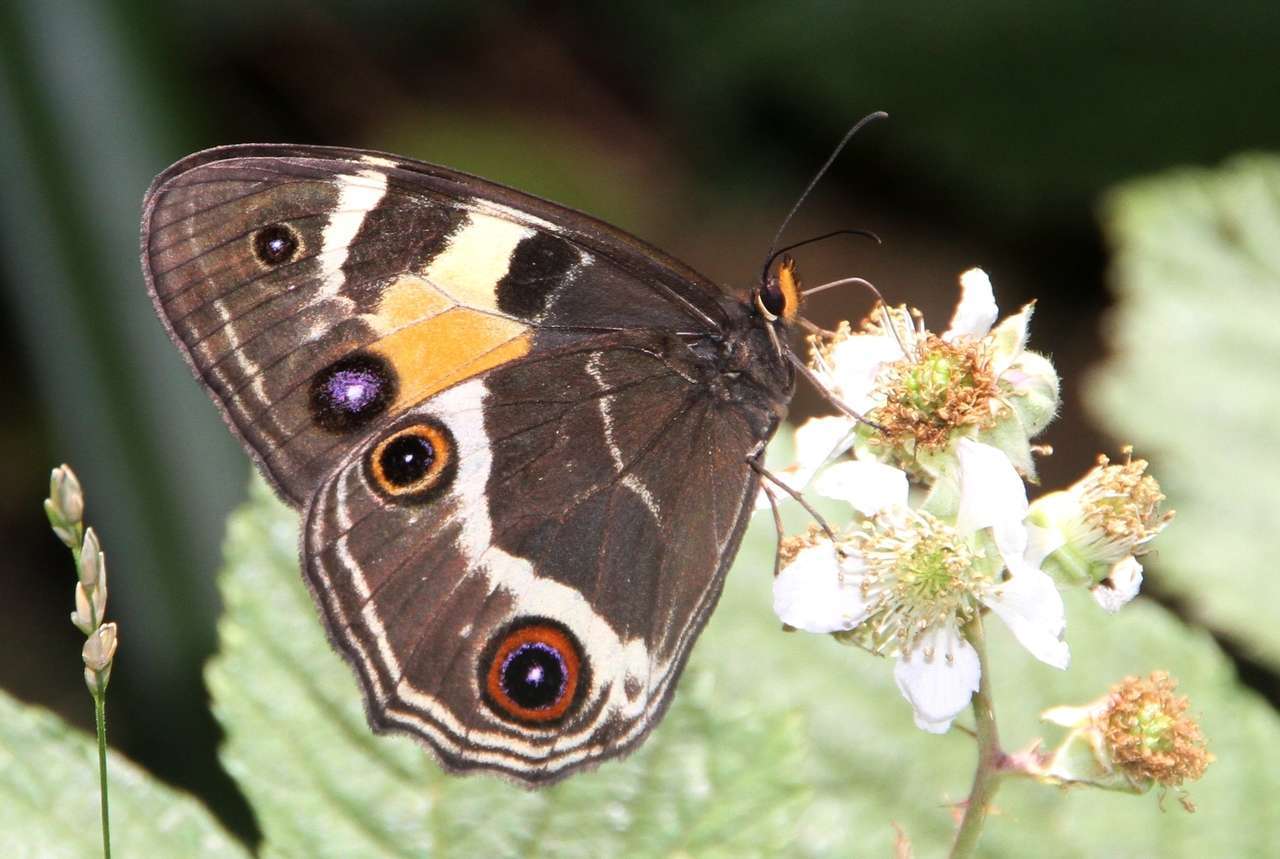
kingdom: Animalia
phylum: Arthropoda
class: Insecta
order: Lepidoptera
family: Nymphalidae
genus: Tisiphone
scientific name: Tisiphone abeona
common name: Swordgrass brown
